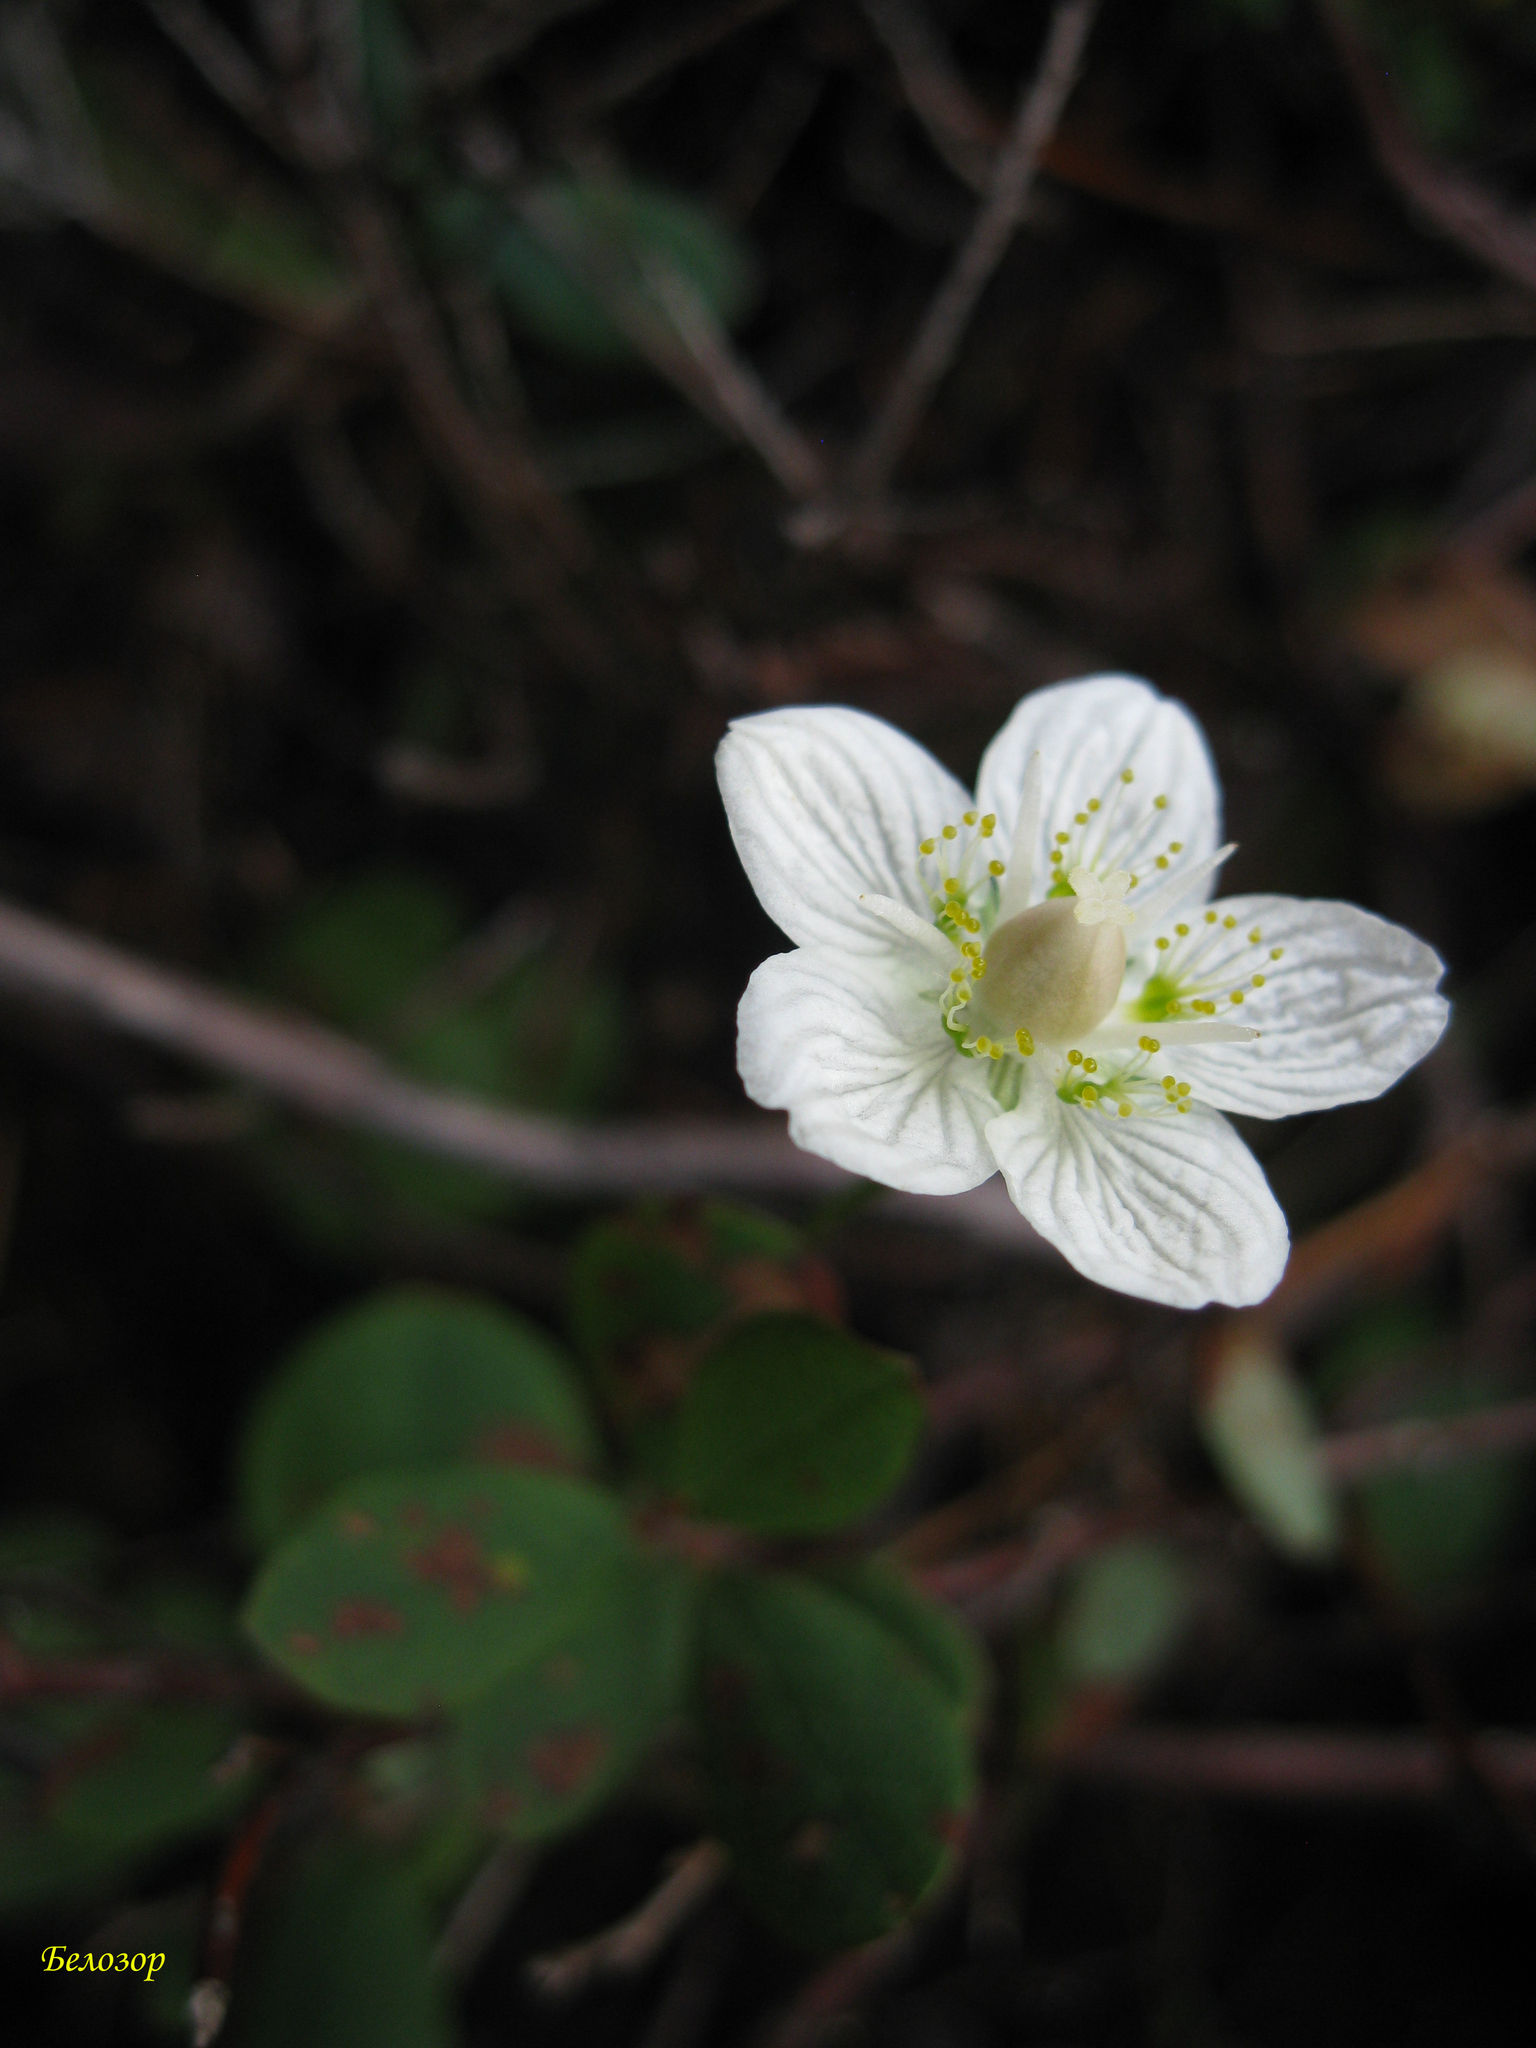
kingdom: Plantae
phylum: Tracheophyta
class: Magnoliopsida
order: Celastrales
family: Parnassiaceae
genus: Parnassia
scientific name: Parnassia palustris
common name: Grass-of-parnassus
